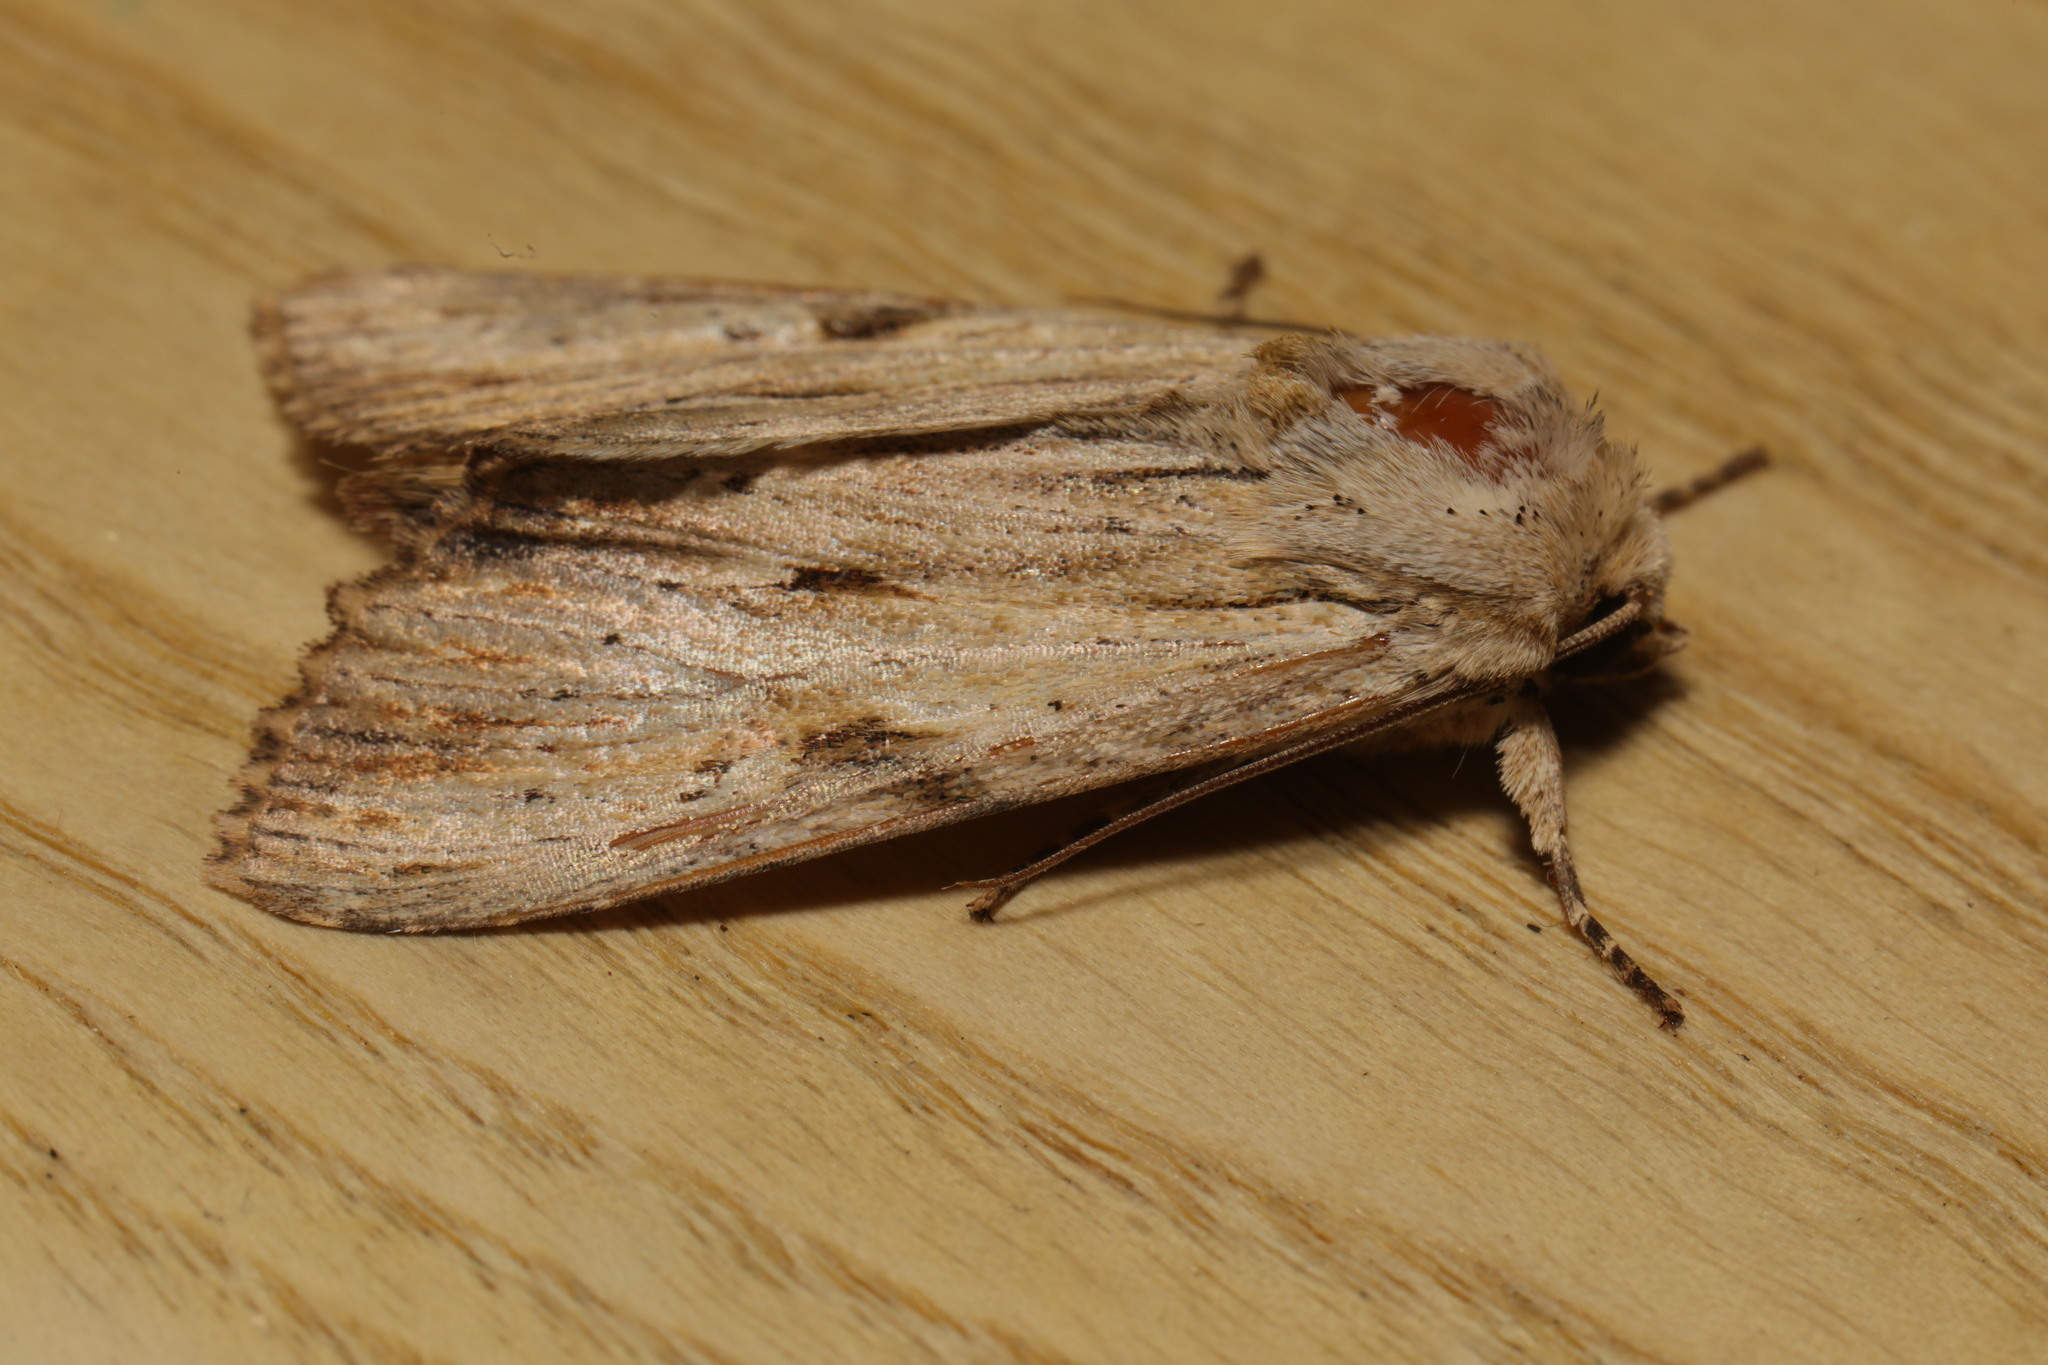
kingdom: Animalia
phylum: Arthropoda
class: Insecta
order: Lepidoptera
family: Noctuidae
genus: Apamea
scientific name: Apamea lithoxylaea
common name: Light arches
